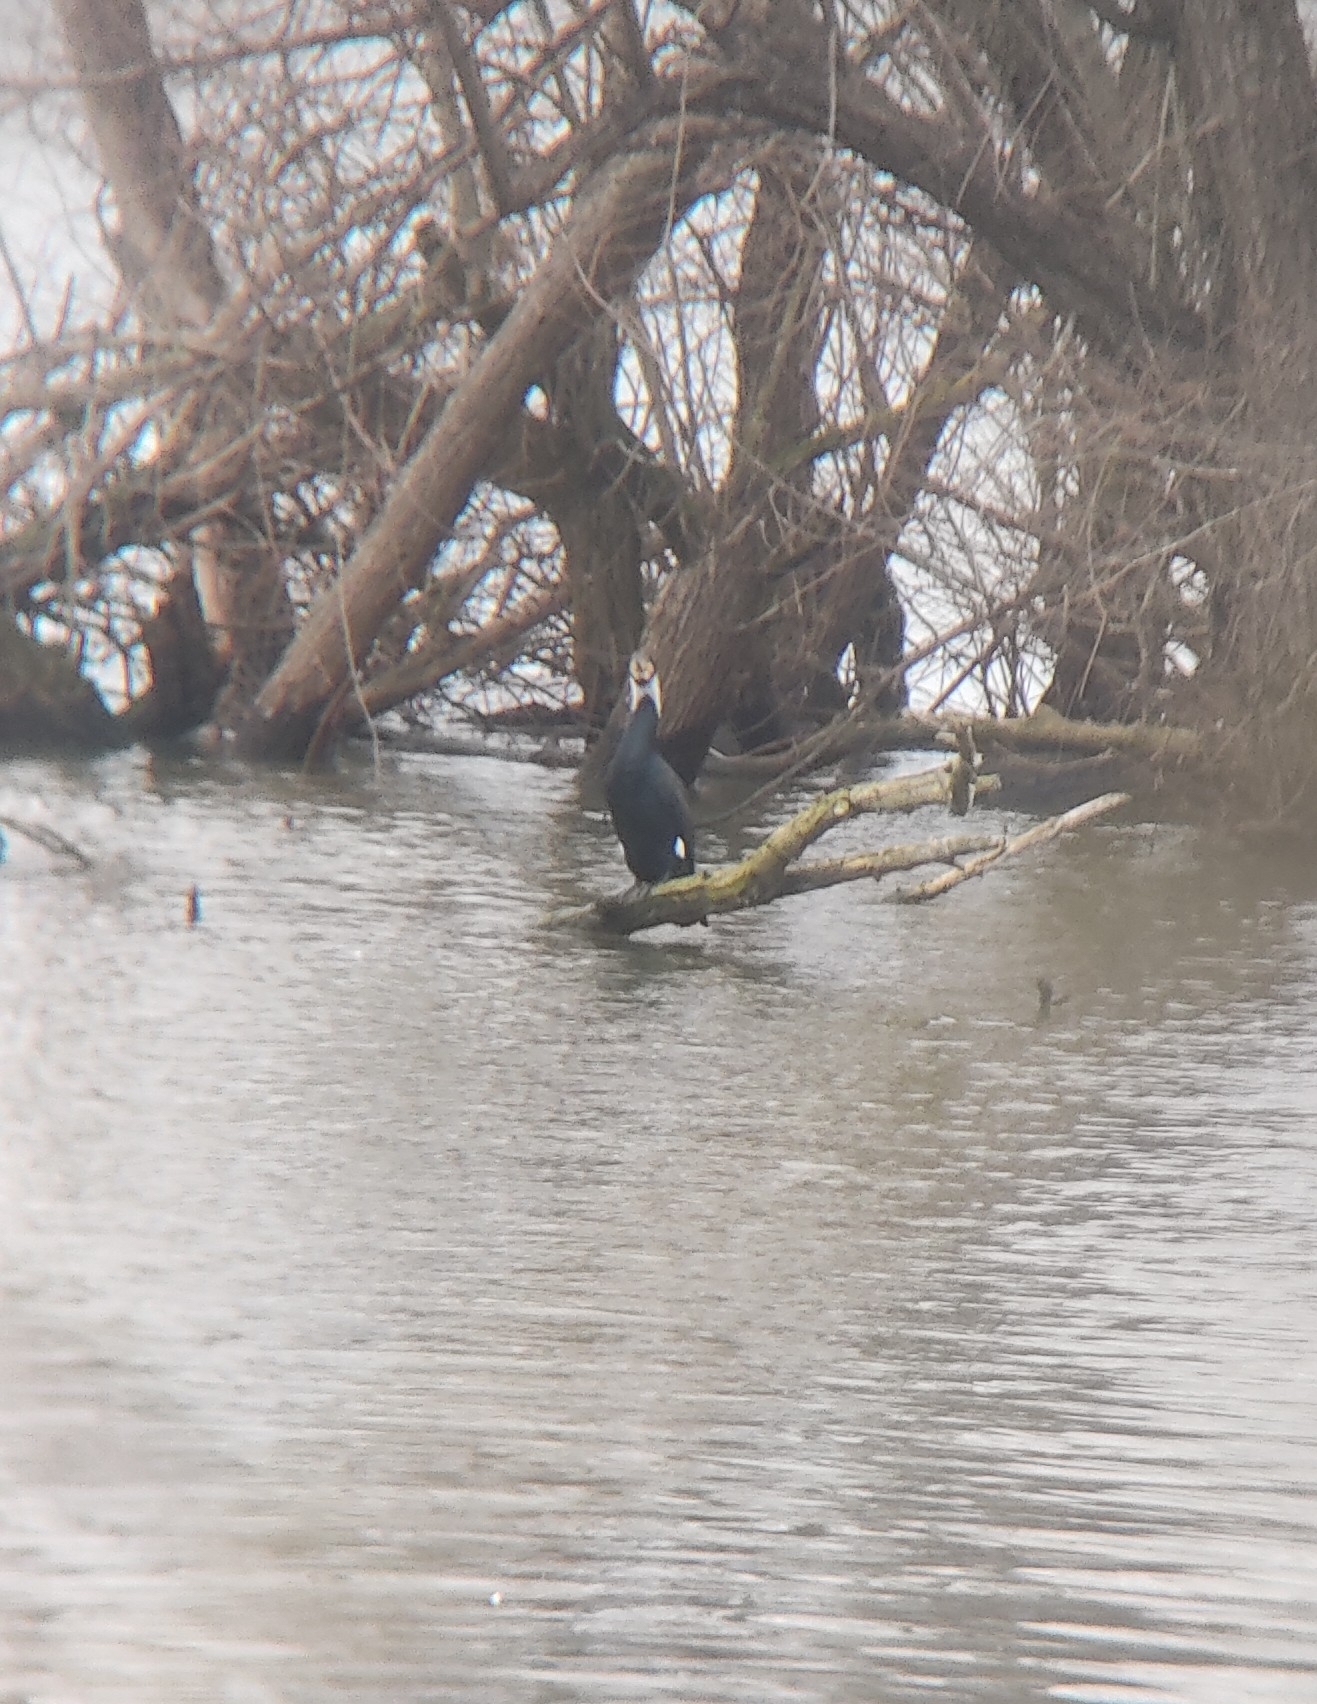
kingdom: Animalia
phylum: Chordata
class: Aves
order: Suliformes
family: Phalacrocoracidae
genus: Phalacrocorax
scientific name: Phalacrocorax carbo
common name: Great cormorant
